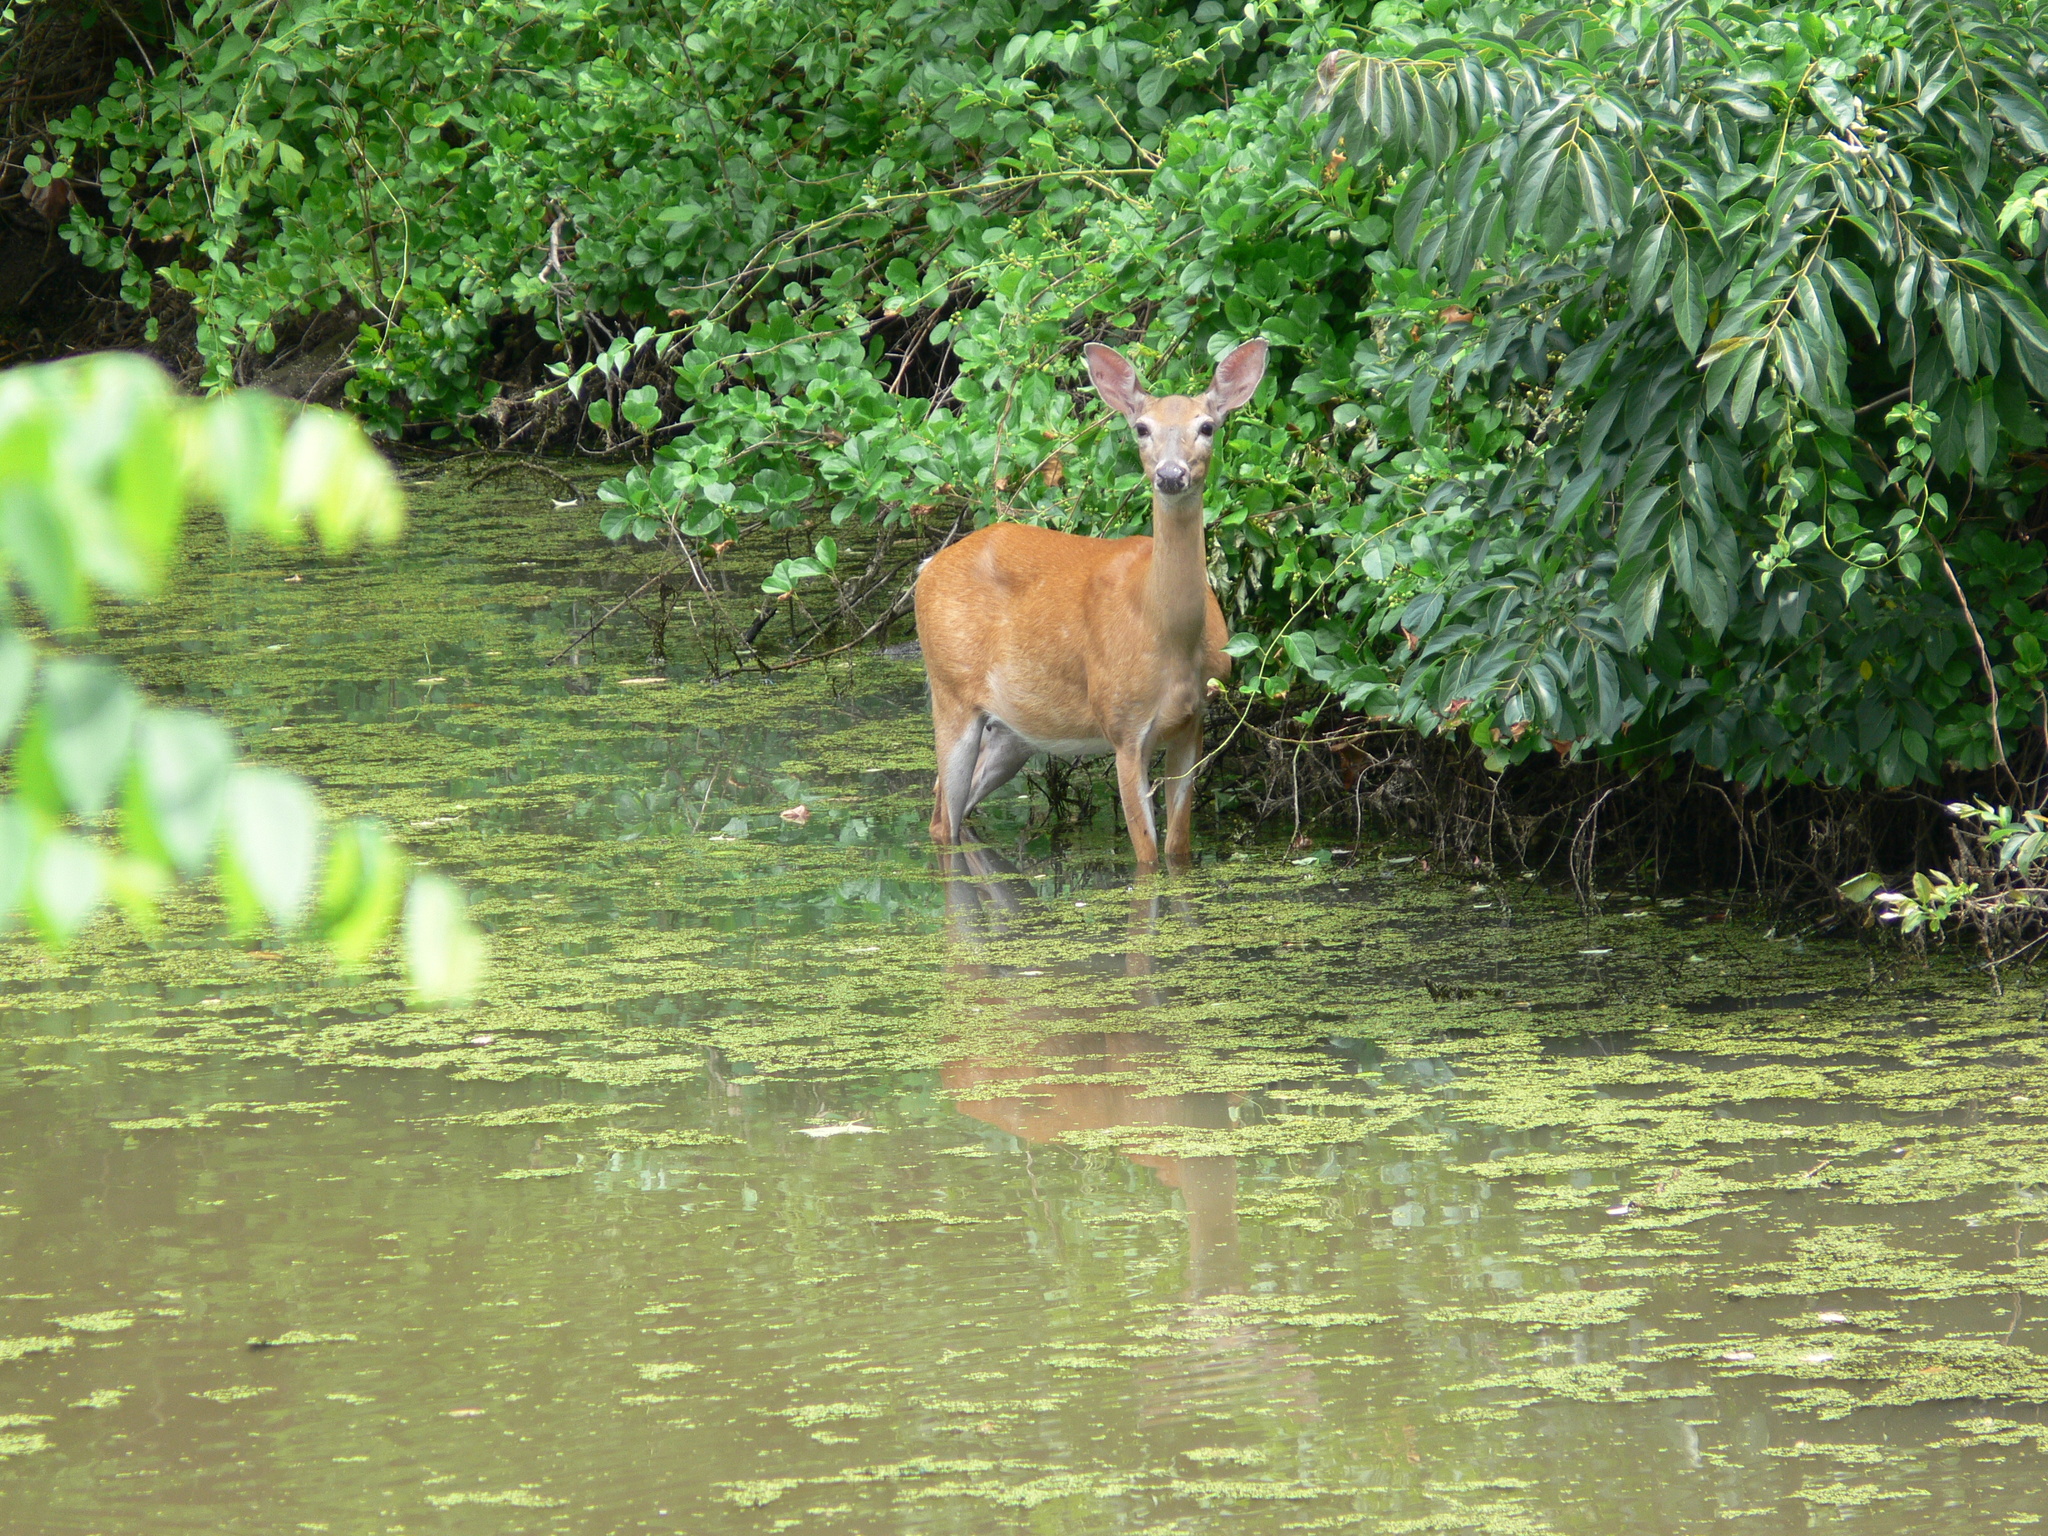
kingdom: Animalia
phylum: Chordata
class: Mammalia
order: Artiodactyla
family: Cervidae
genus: Odocoileus
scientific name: Odocoileus virginianus
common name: White-tailed deer
